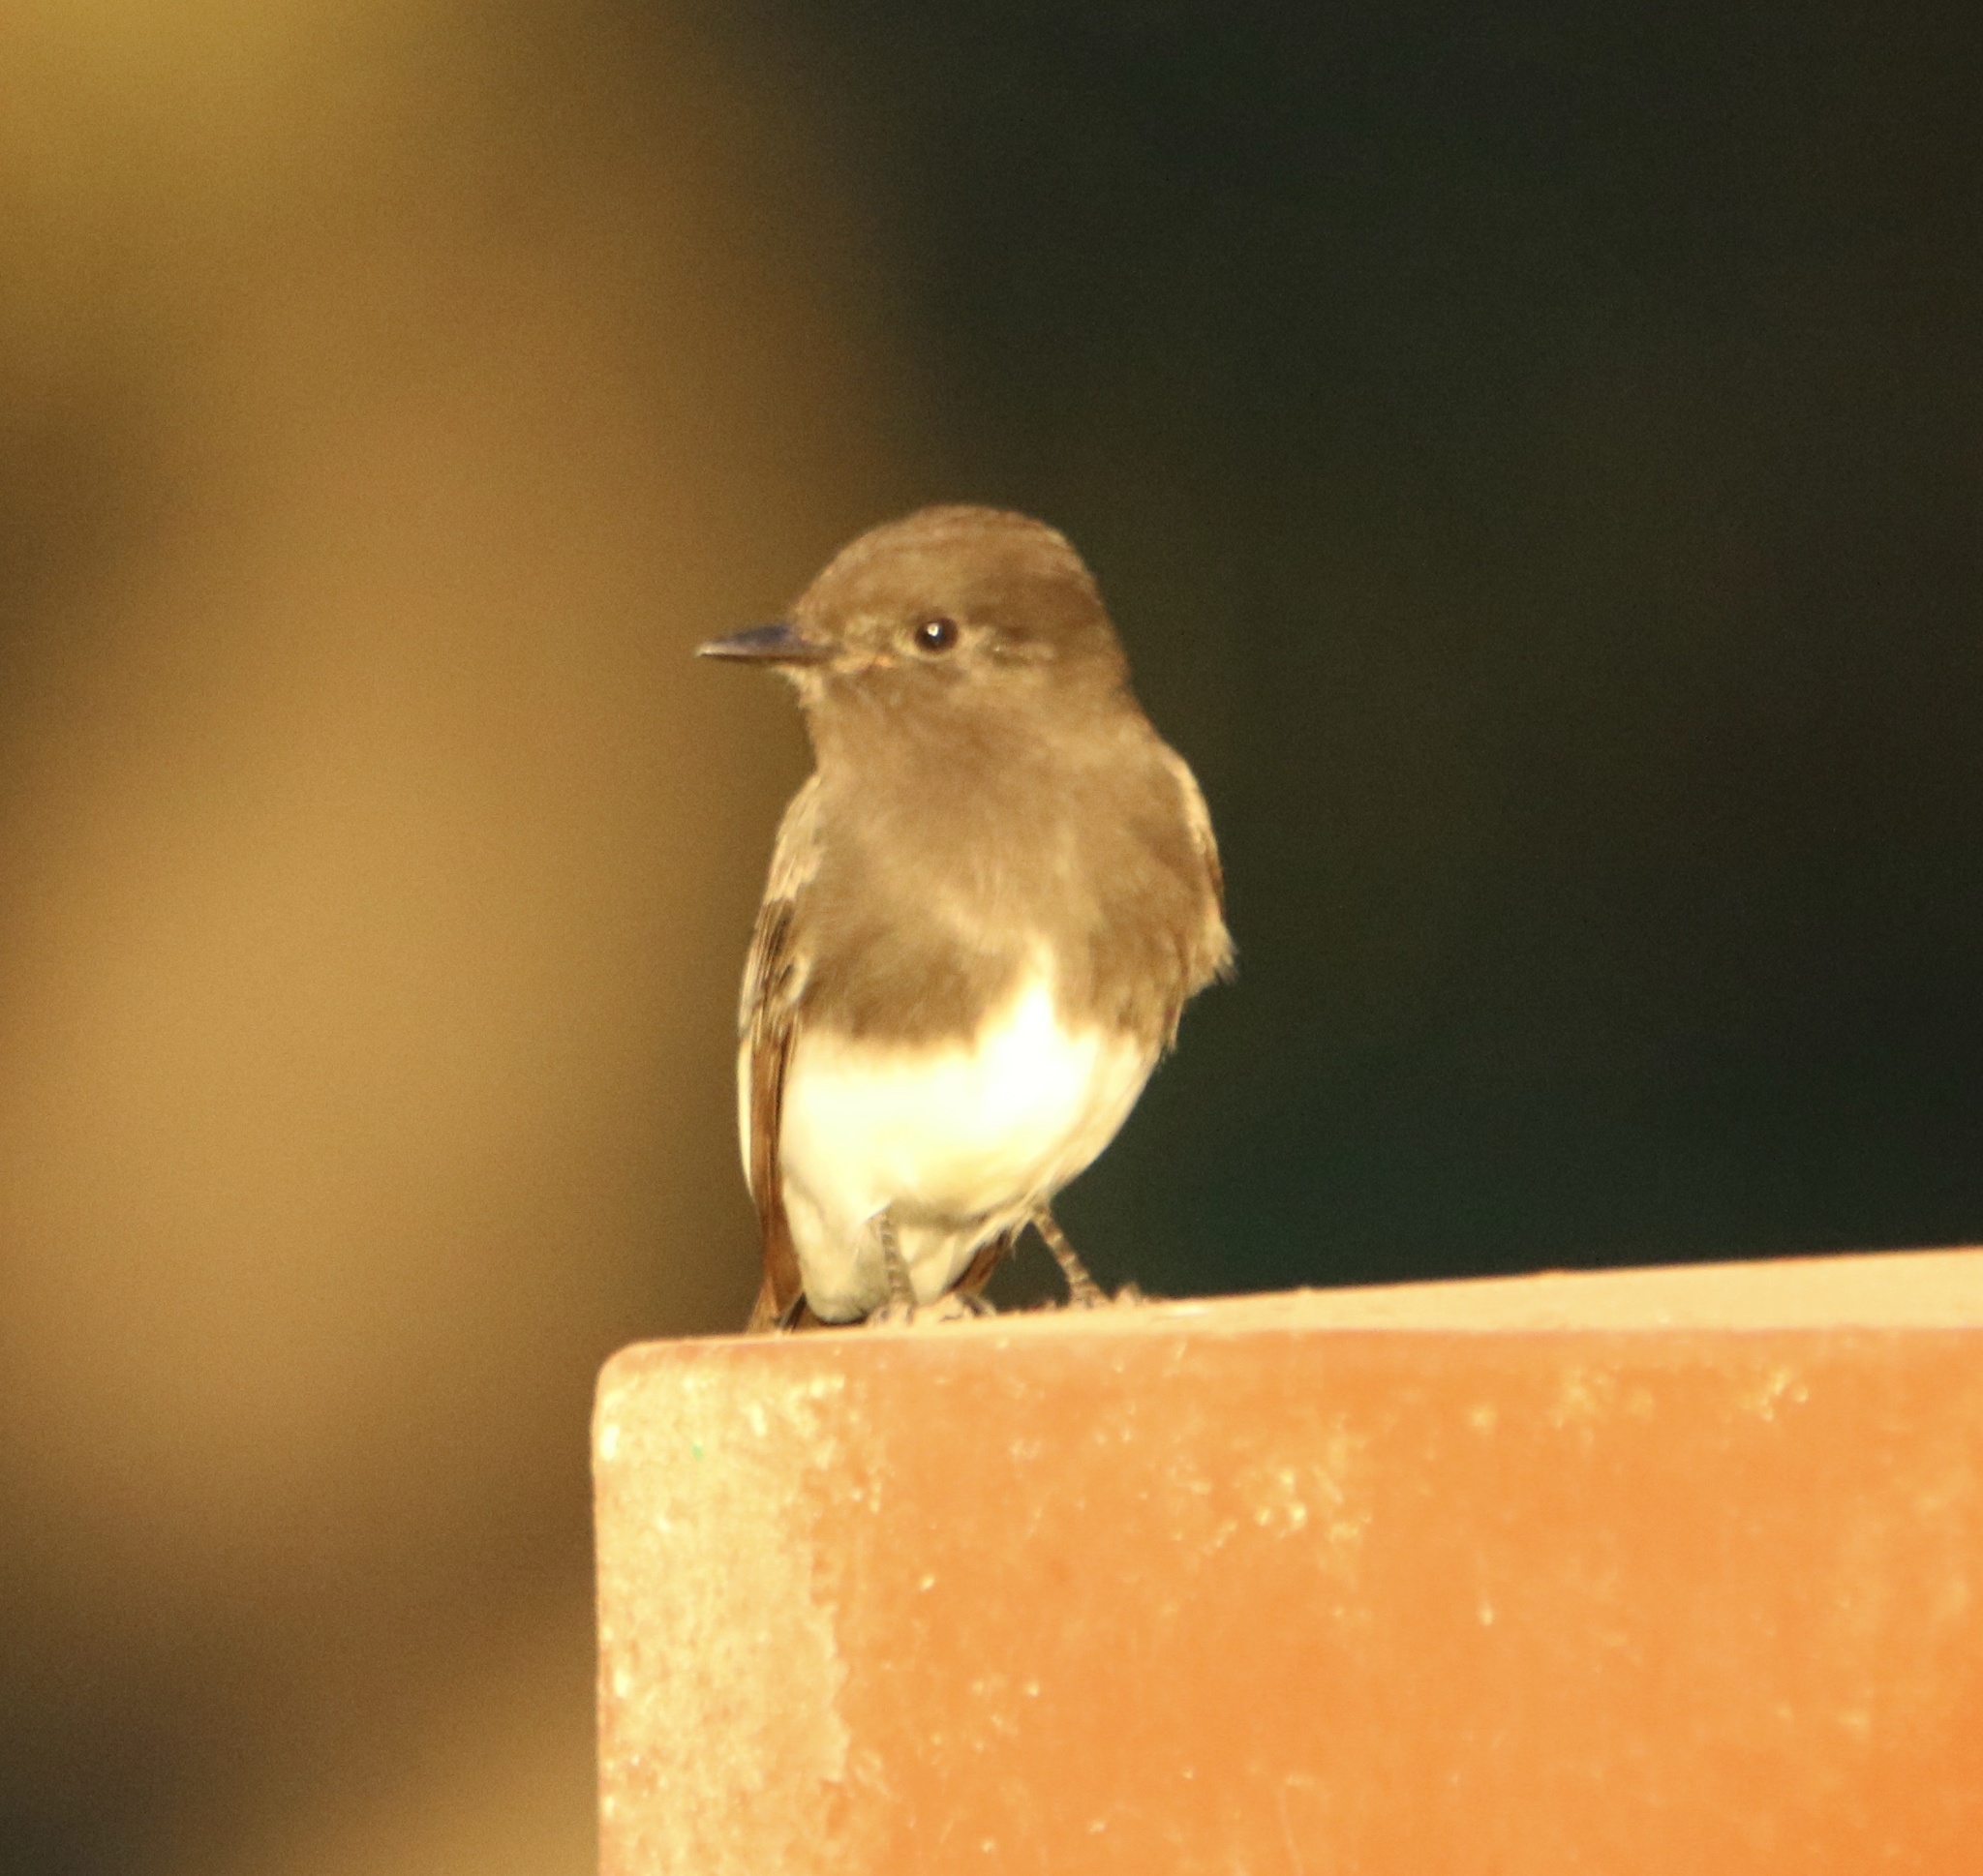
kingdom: Animalia
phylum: Chordata
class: Aves
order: Passeriformes
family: Tyrannidae
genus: Sayornis
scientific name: Sayornis nigricans
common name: Black phoebe
